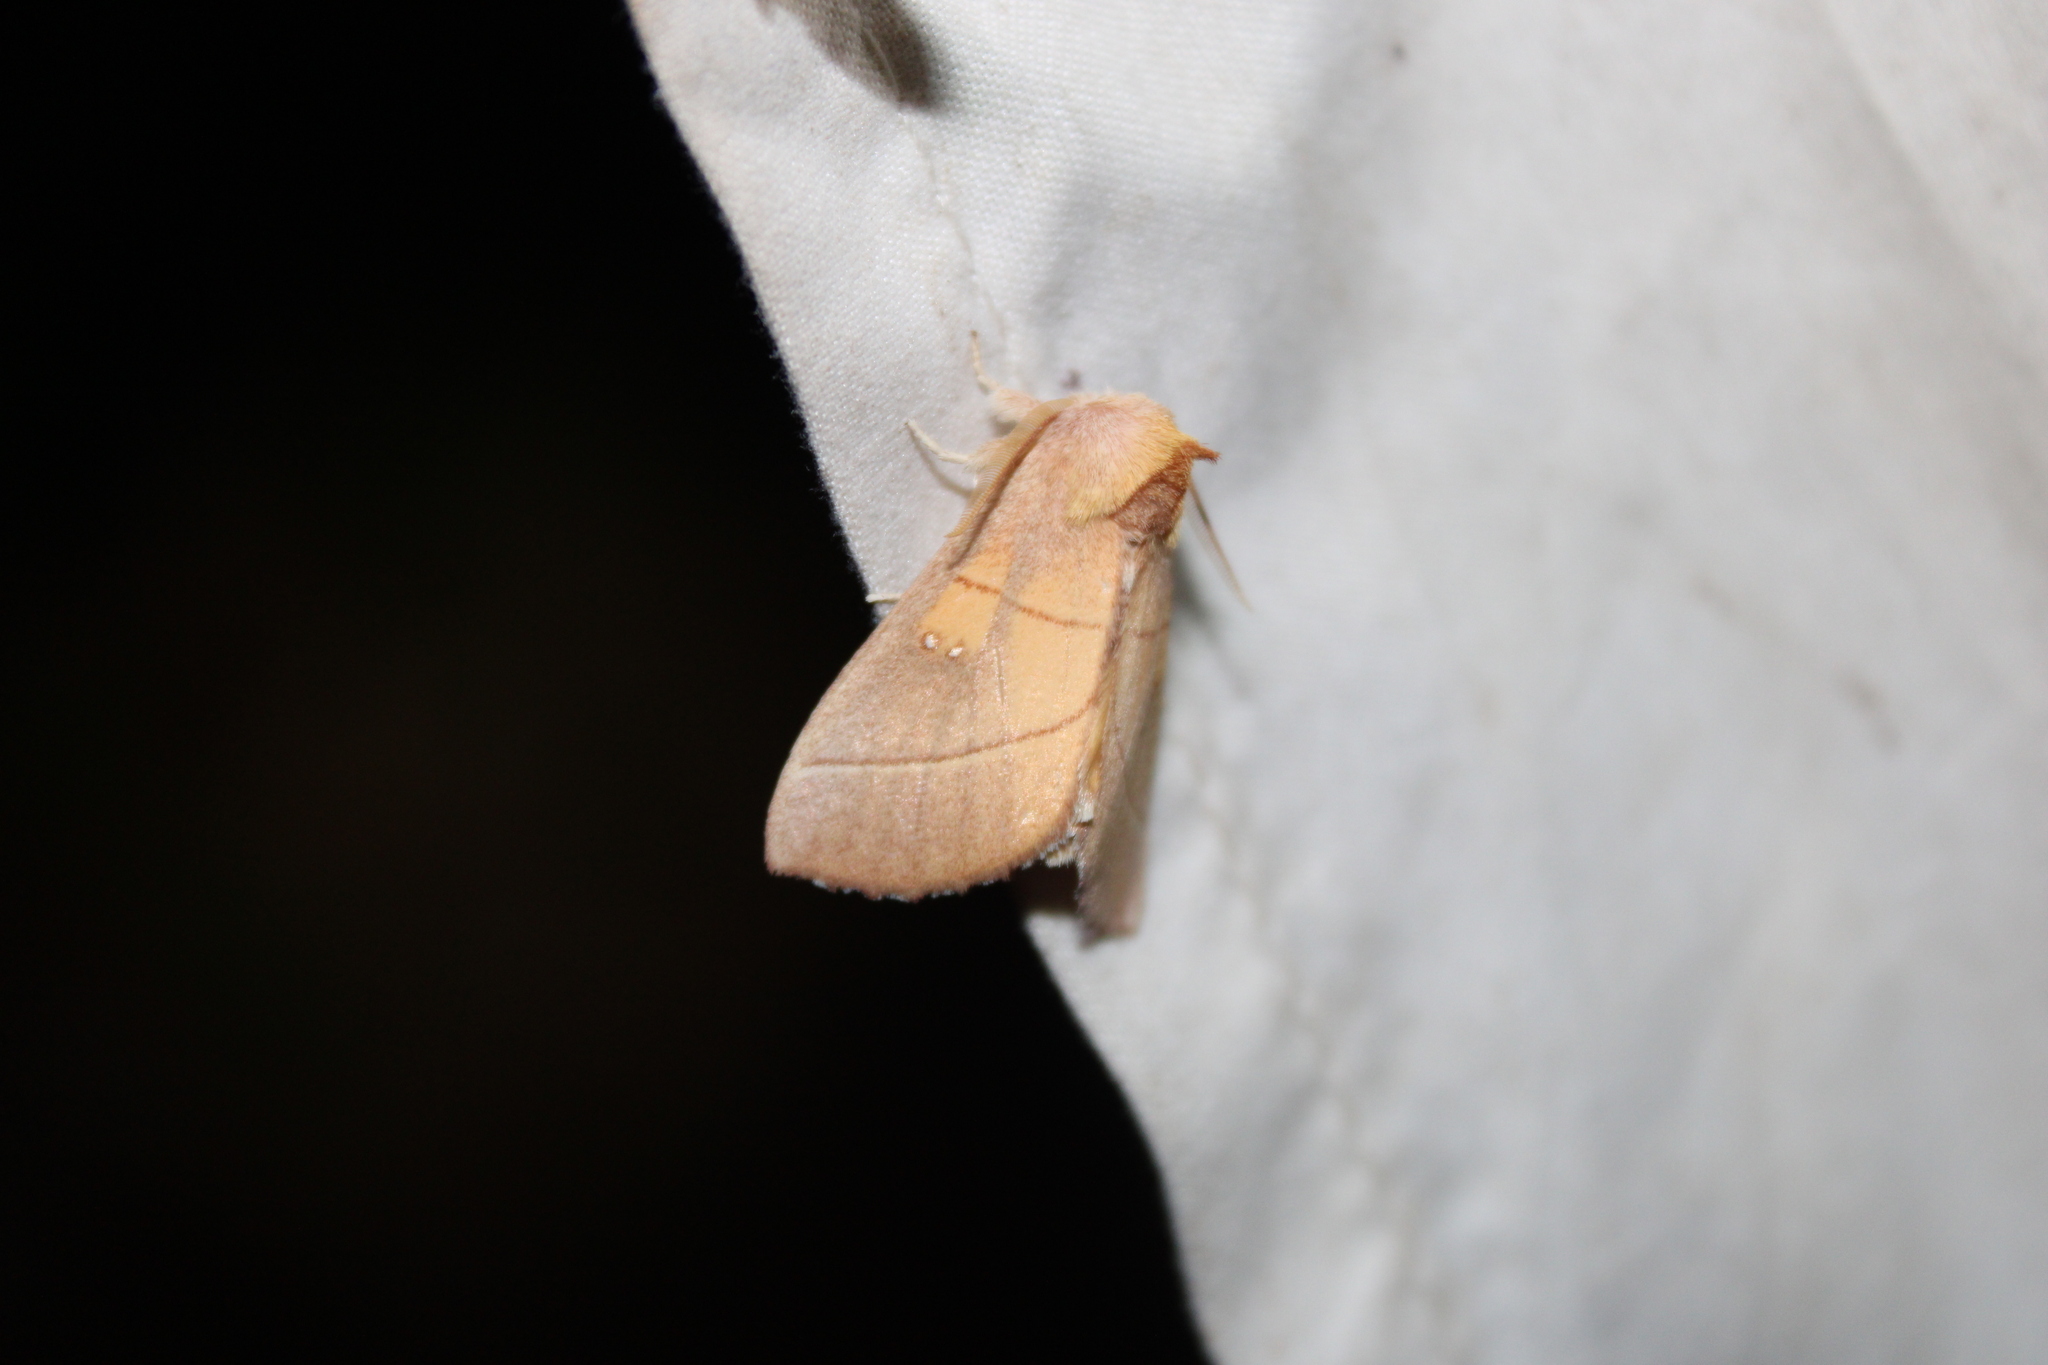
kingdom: Animalia
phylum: Arthropoda
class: Insecta
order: Lepidoptera
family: Notodontidae
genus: Nadata
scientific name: Nadata gibbosa
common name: White-dotted prominent
